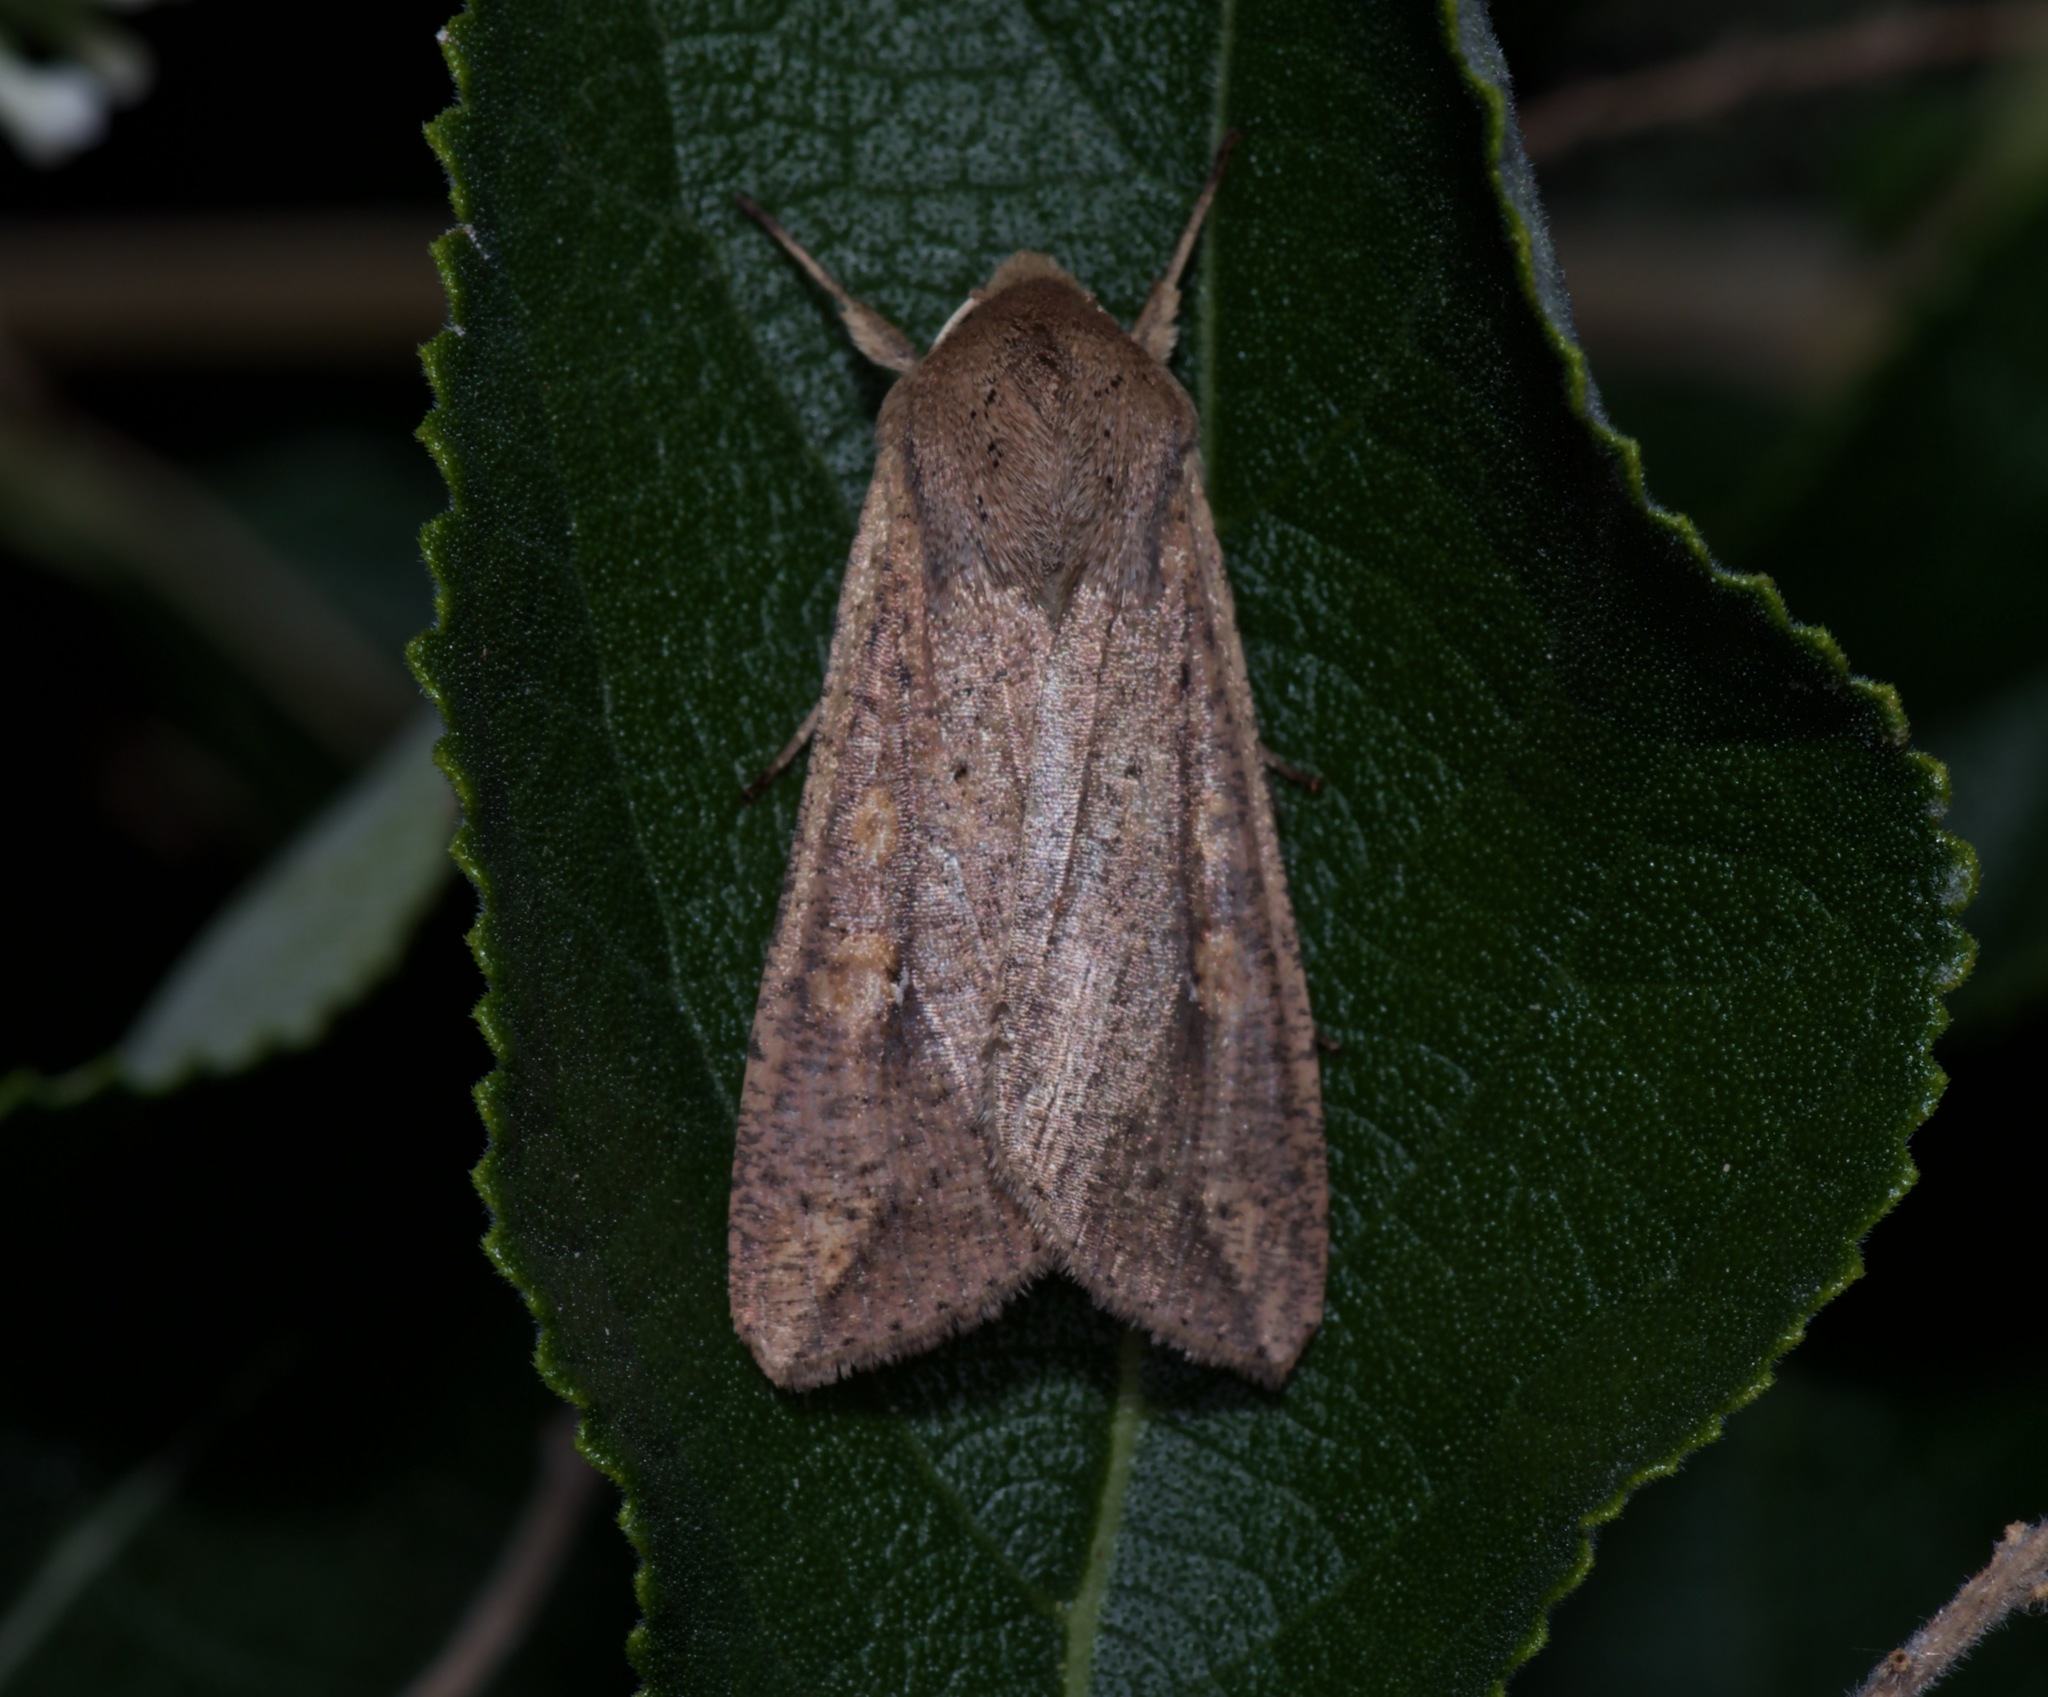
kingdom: Animalia
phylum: Arthropoda
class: Insecta
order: Lepidoptera
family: Noctuidae
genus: Mythimna
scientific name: Mythimna unipuncta
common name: White-speck
